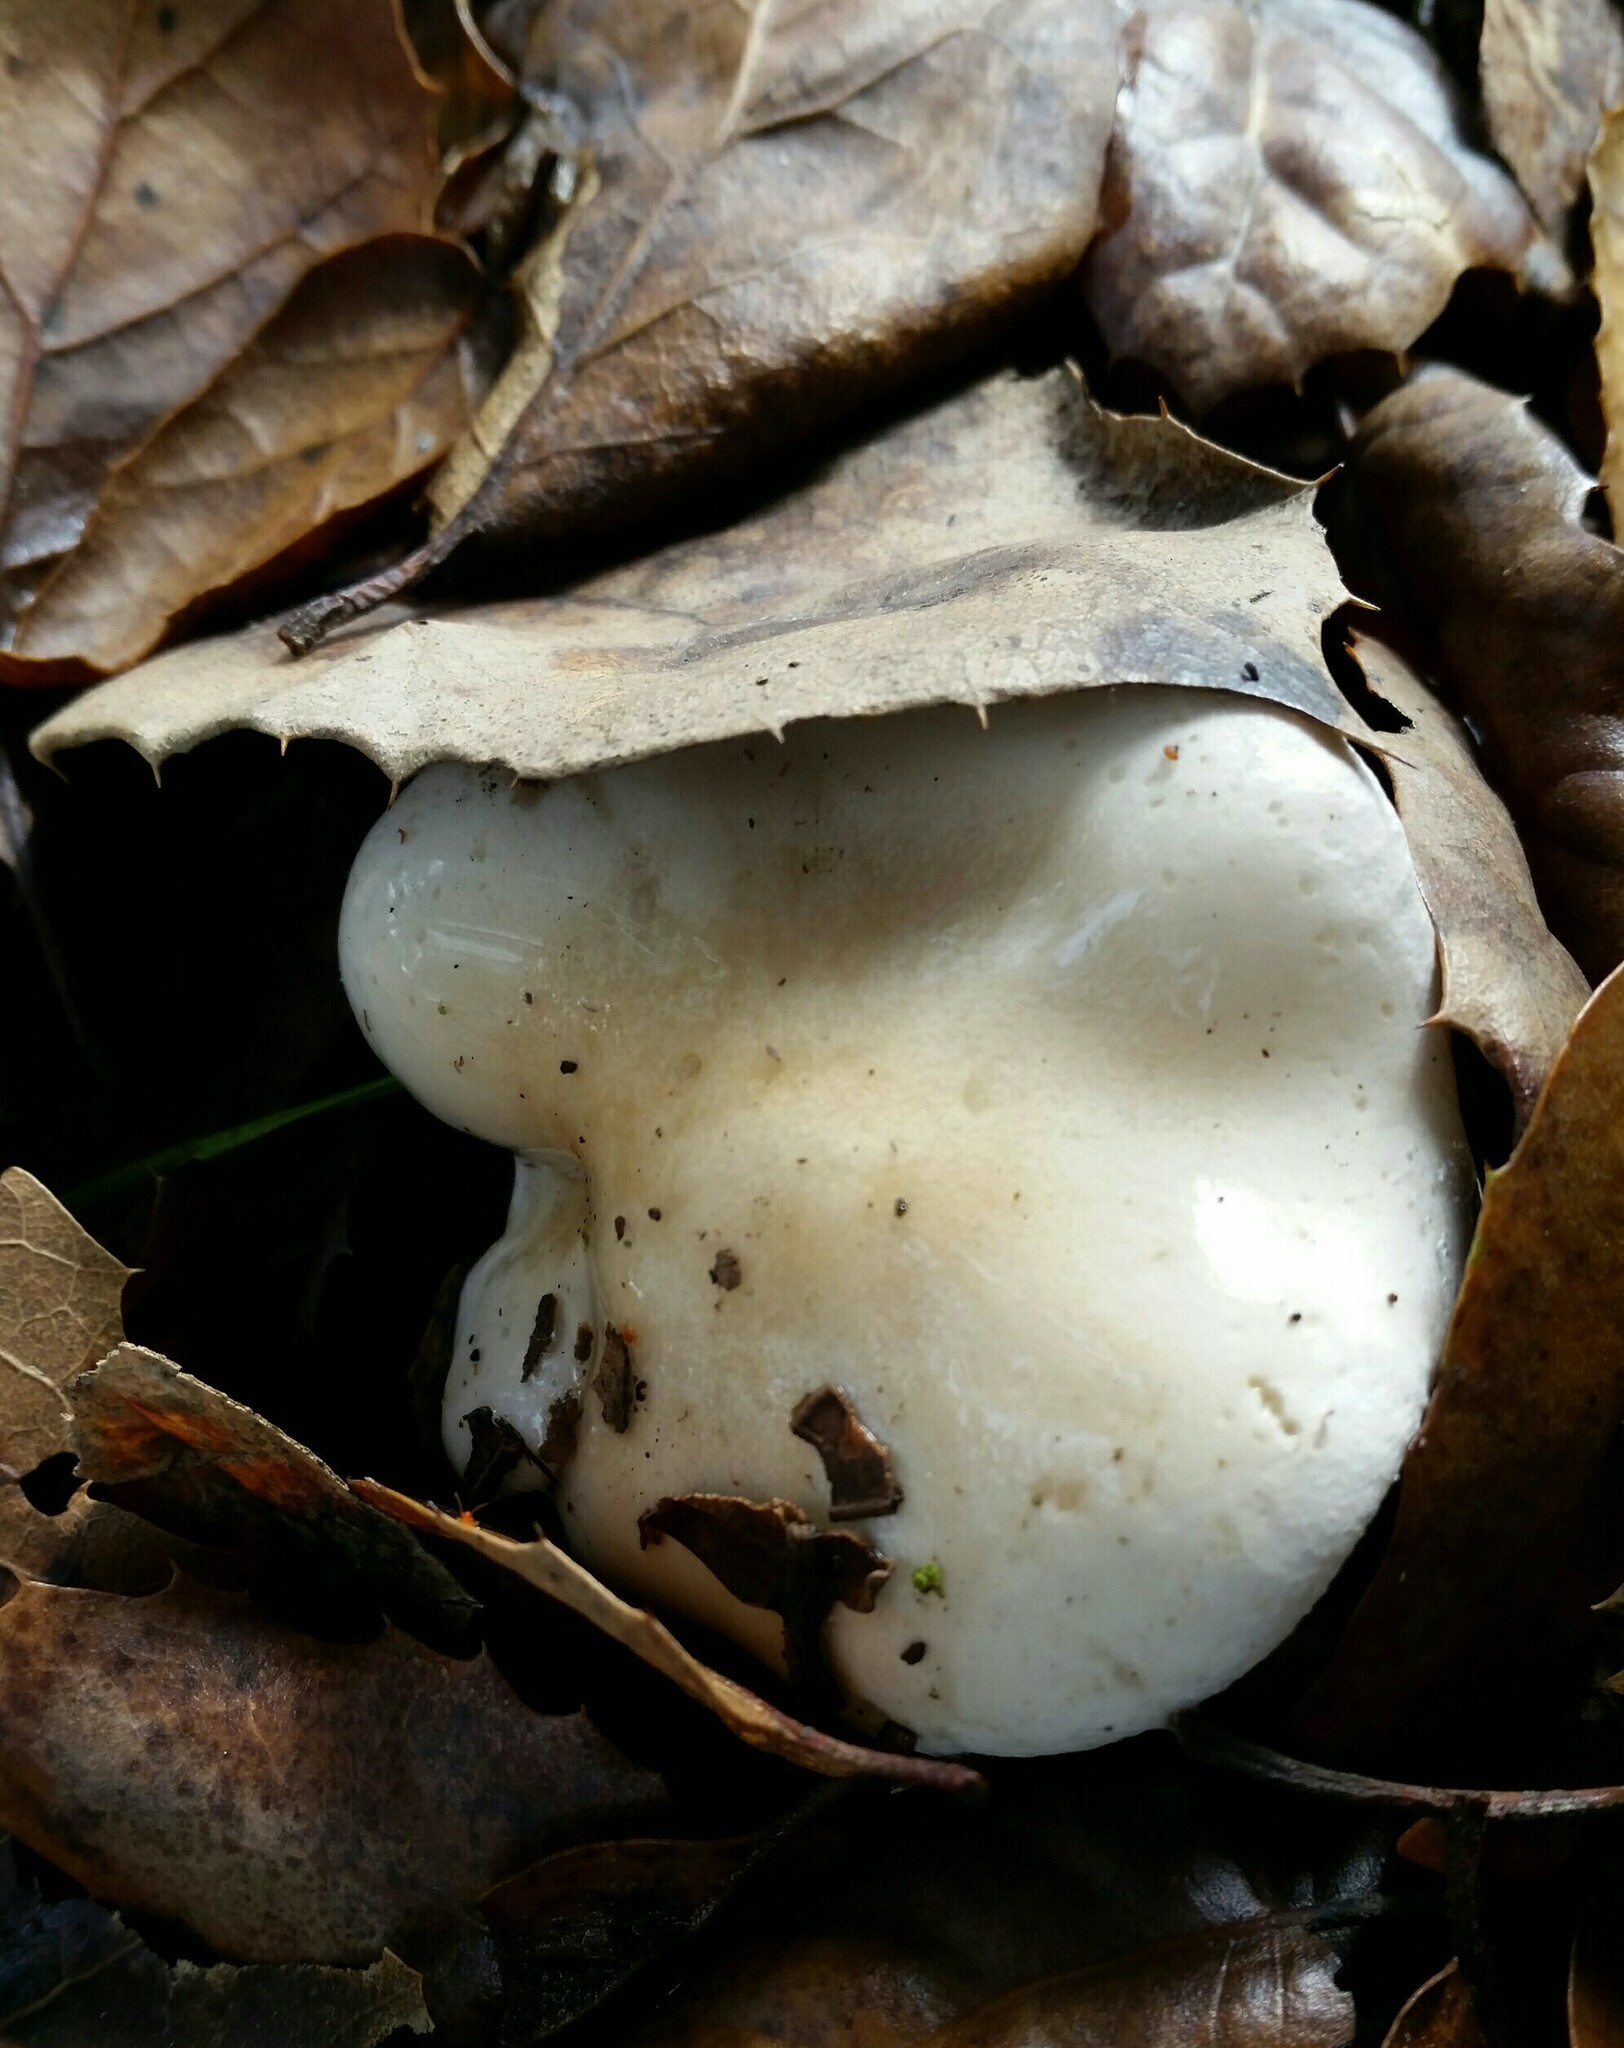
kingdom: Fungi
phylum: Basidiomycota
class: Agaricomycetes
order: Agaricales
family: Hygrophoraceae
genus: Hygrophorus
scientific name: Hygrophorus eburneus
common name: Ivory wax-cap
